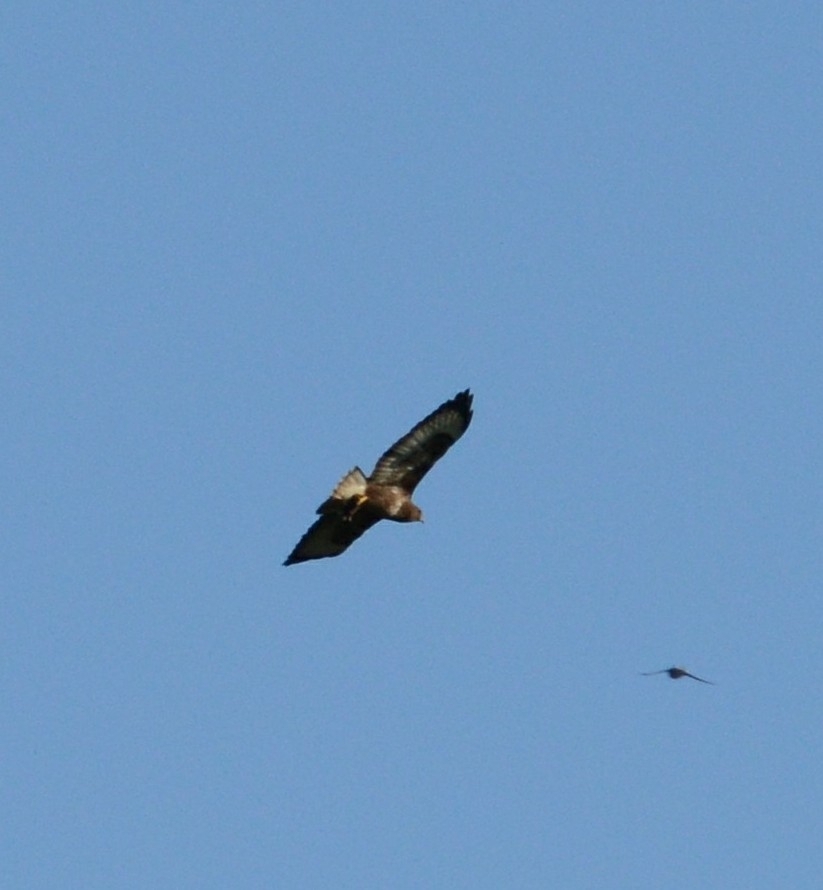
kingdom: Animalia
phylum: Chordata
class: Aves
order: Accipitriformes
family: Accipitridae
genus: Buteo
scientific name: Buteo buteo
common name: Common buzzard
